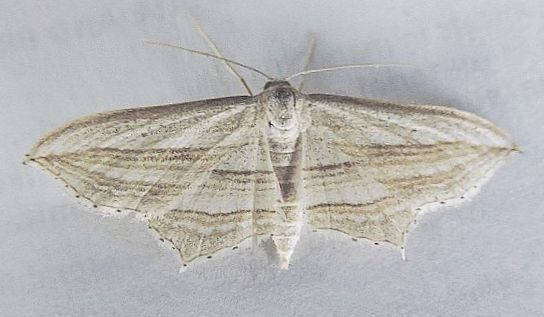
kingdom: Animalia
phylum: Arthropoda
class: Insecta
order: Lepidoptera
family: Geometridae
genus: Arcobara
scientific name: Arcobara multilineata
